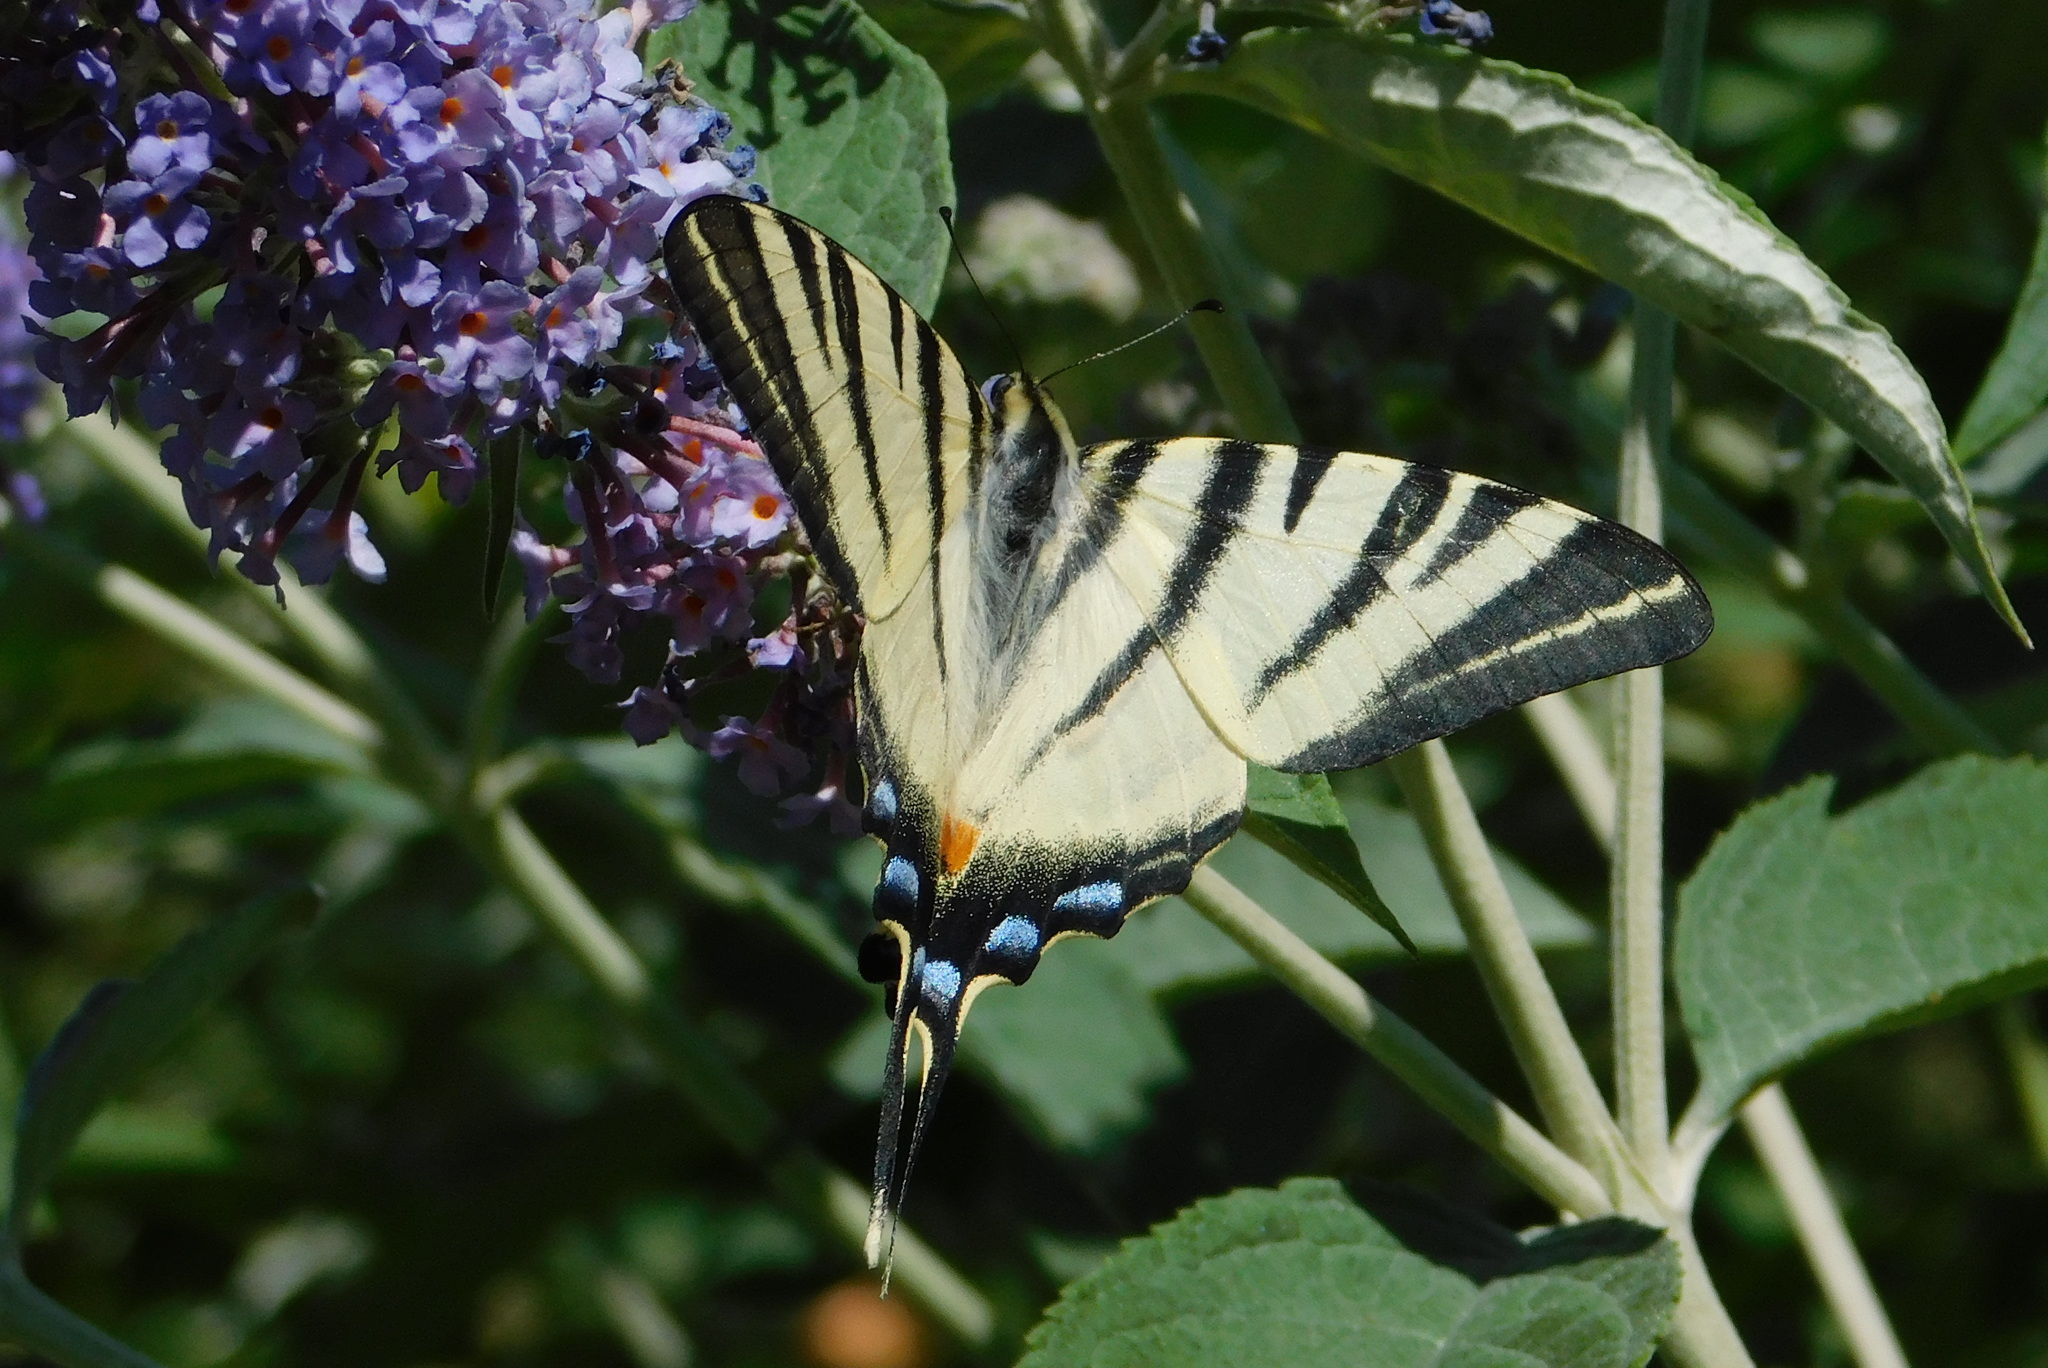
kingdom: Animalia
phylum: Arthropoda
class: Insecta
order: Lepidoptera
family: Papilionidae
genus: Iphiclides
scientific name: Iphiclides podalirius
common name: Scarce swallowtail
